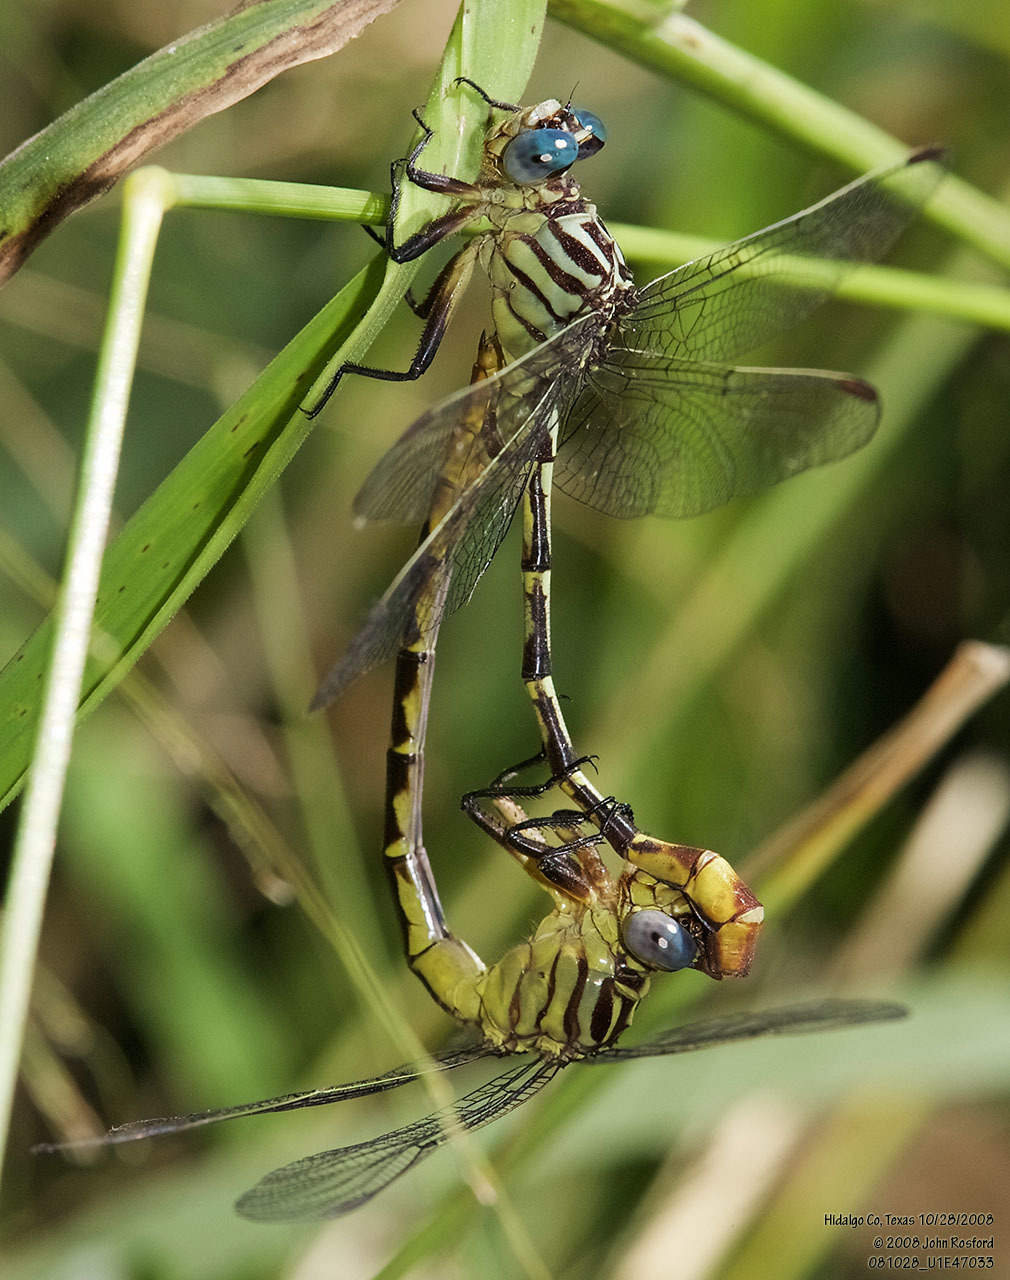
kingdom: Animalia
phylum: Arthropoda
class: Insecta
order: Odonata
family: Gomphidae
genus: Stylurus
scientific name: Stylurus plagiatus
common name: Russet-tipped clubtail
